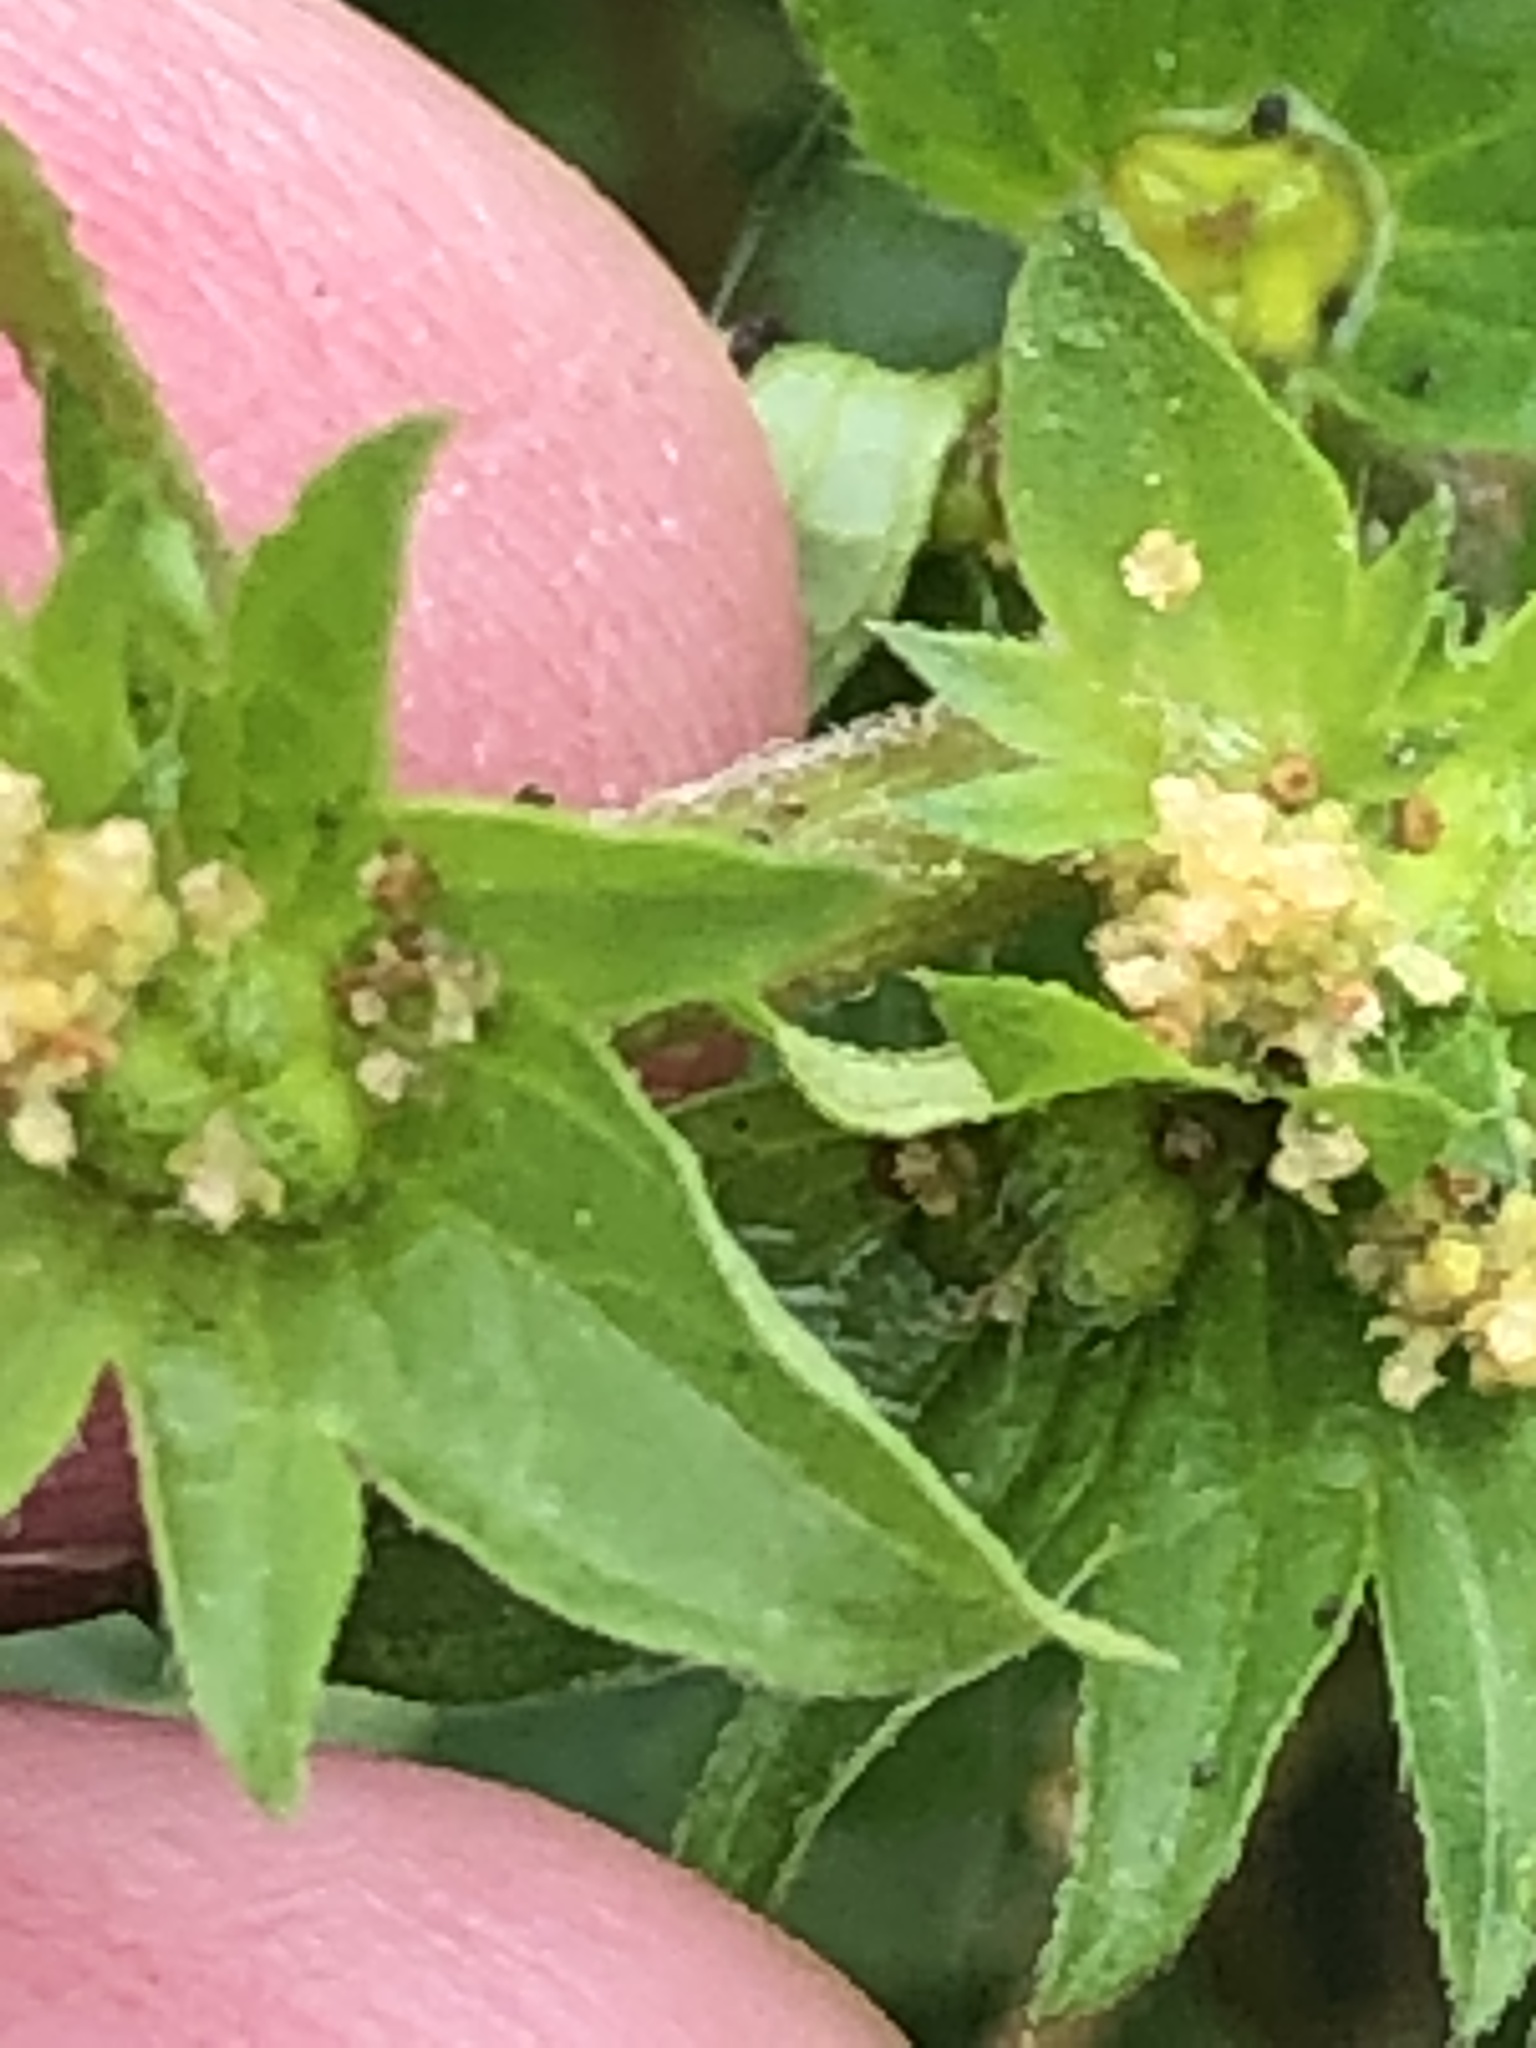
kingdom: Plantae
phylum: Tracheophyta
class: Magnoliopsida
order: Malpighiales
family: Euphorbiaceae
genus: Acalypha
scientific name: Acalypha rhomboidea
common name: Rhombic copperleaf
